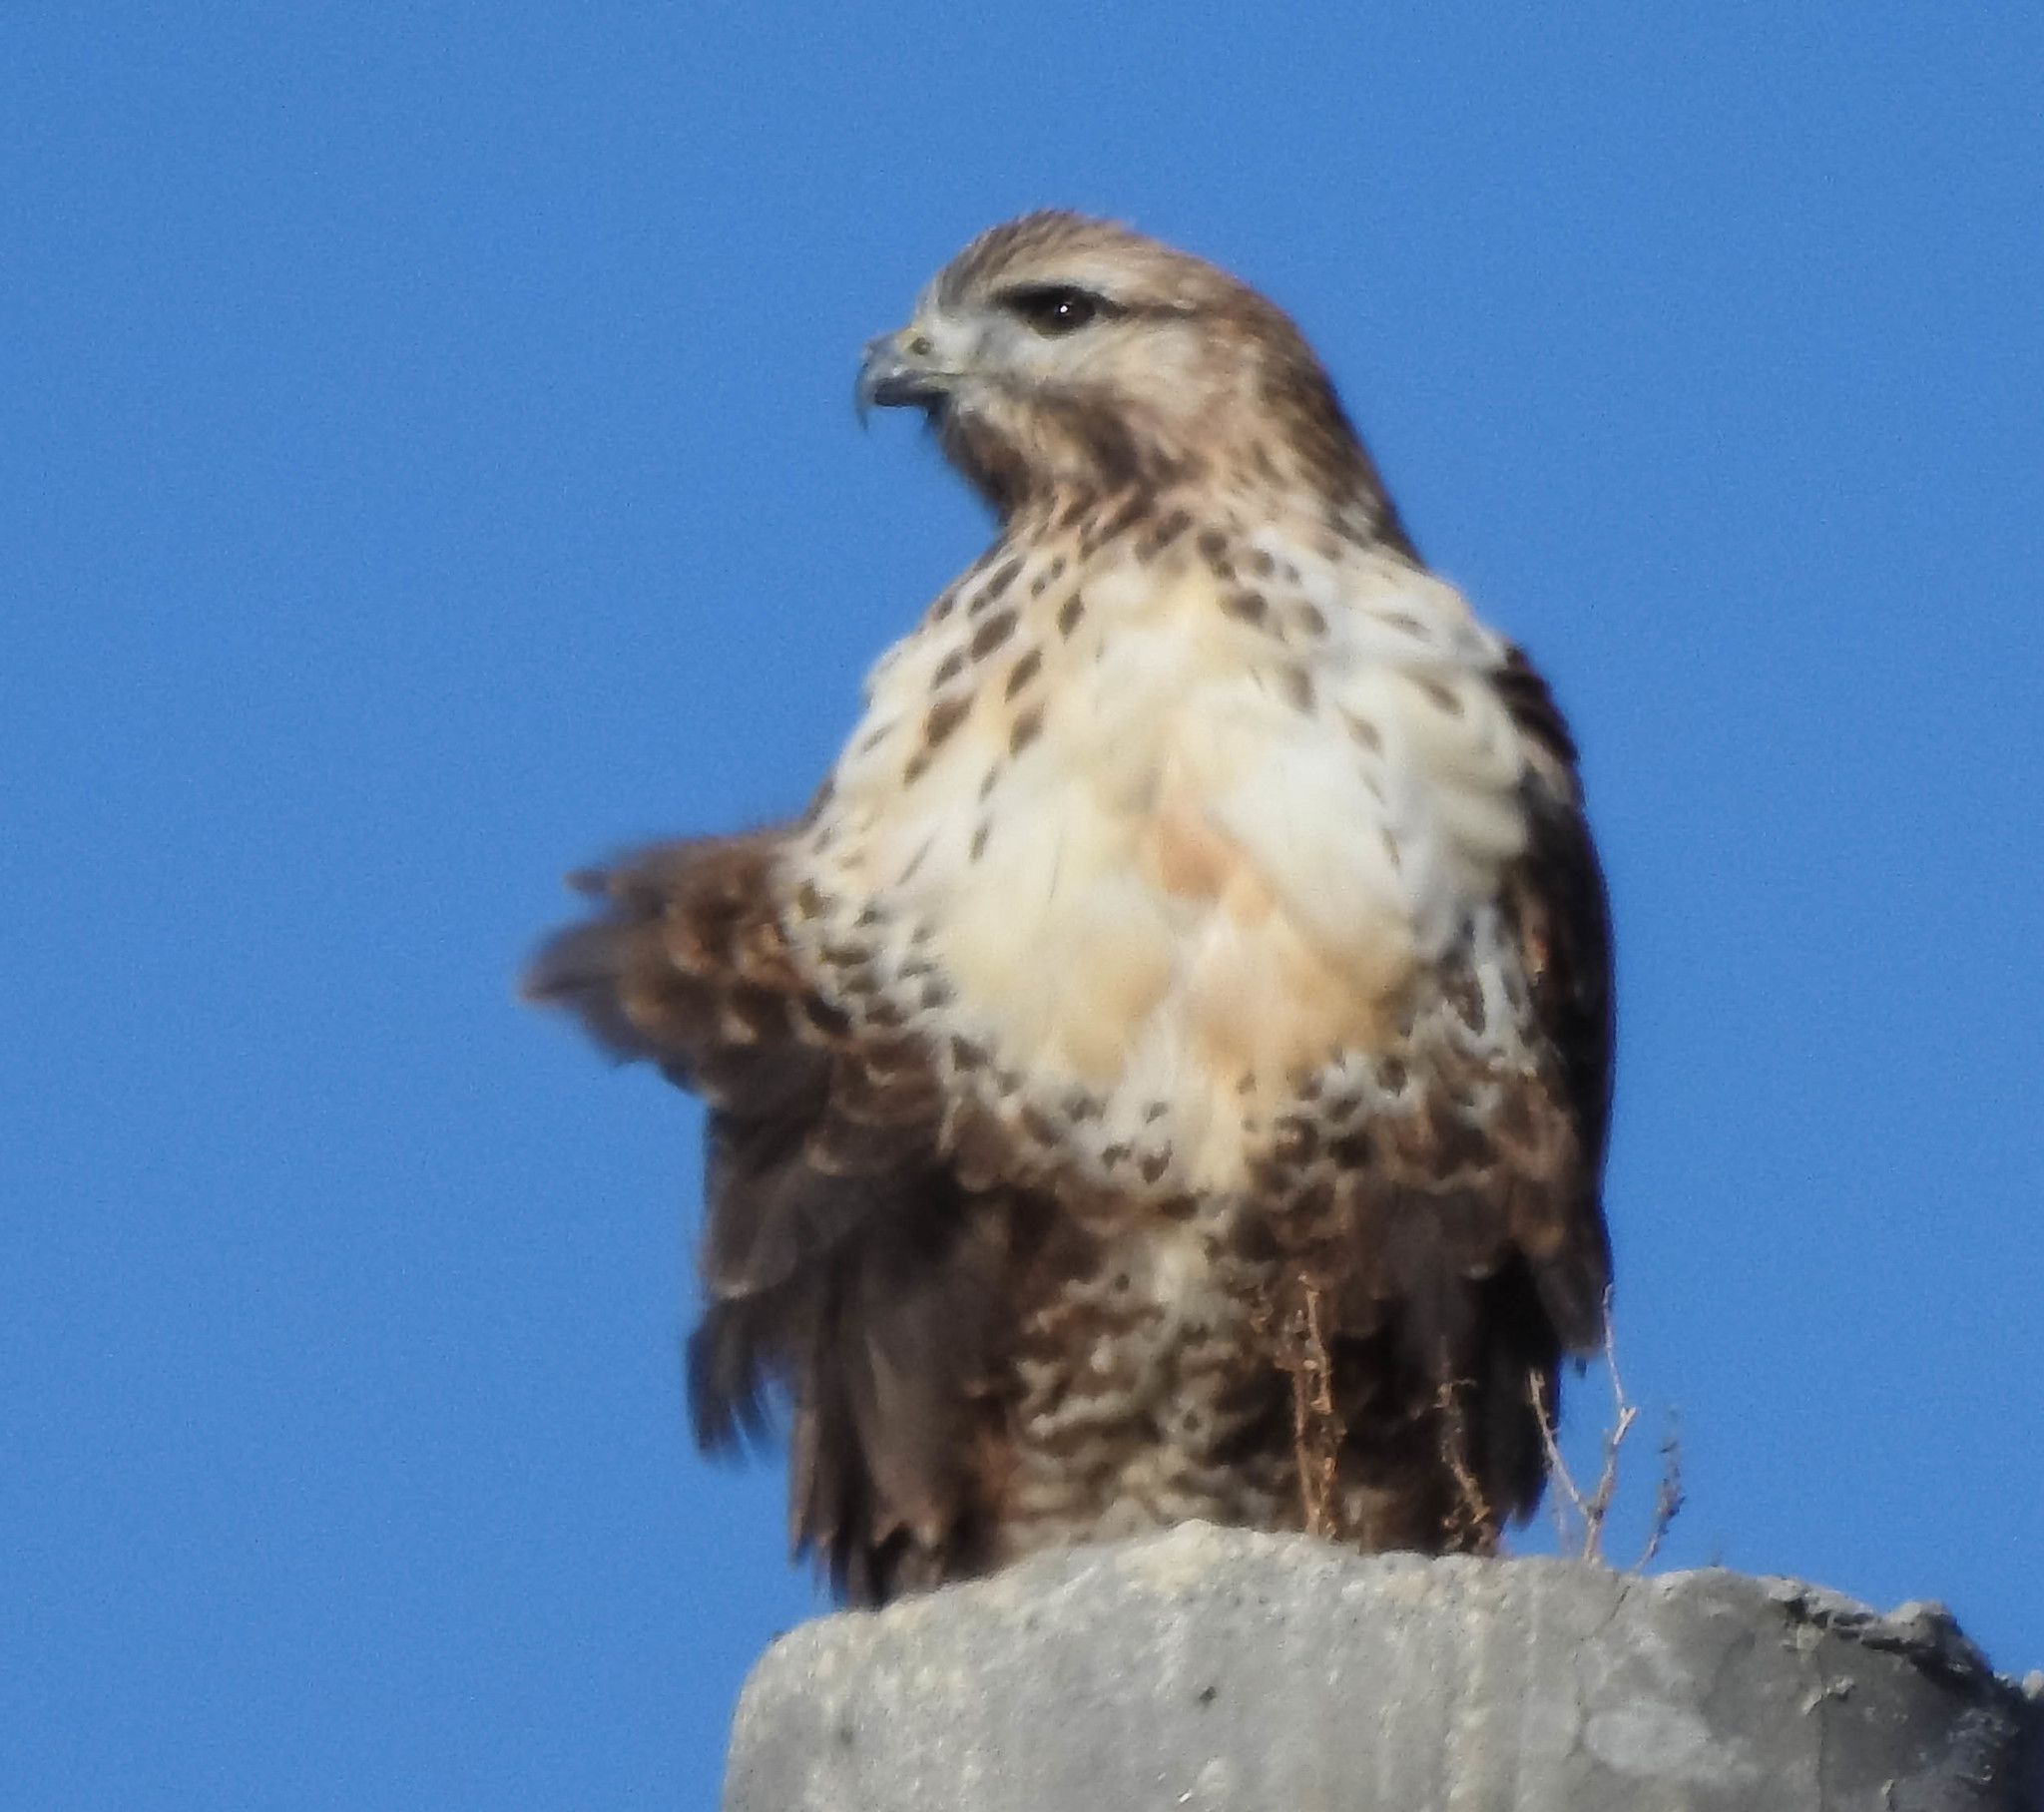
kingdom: Animalia
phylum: Chordata
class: Aves
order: Accipitriformes
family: Accipitridae
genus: Buteo
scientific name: Buteo hemilasius
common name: Upland buzzard
